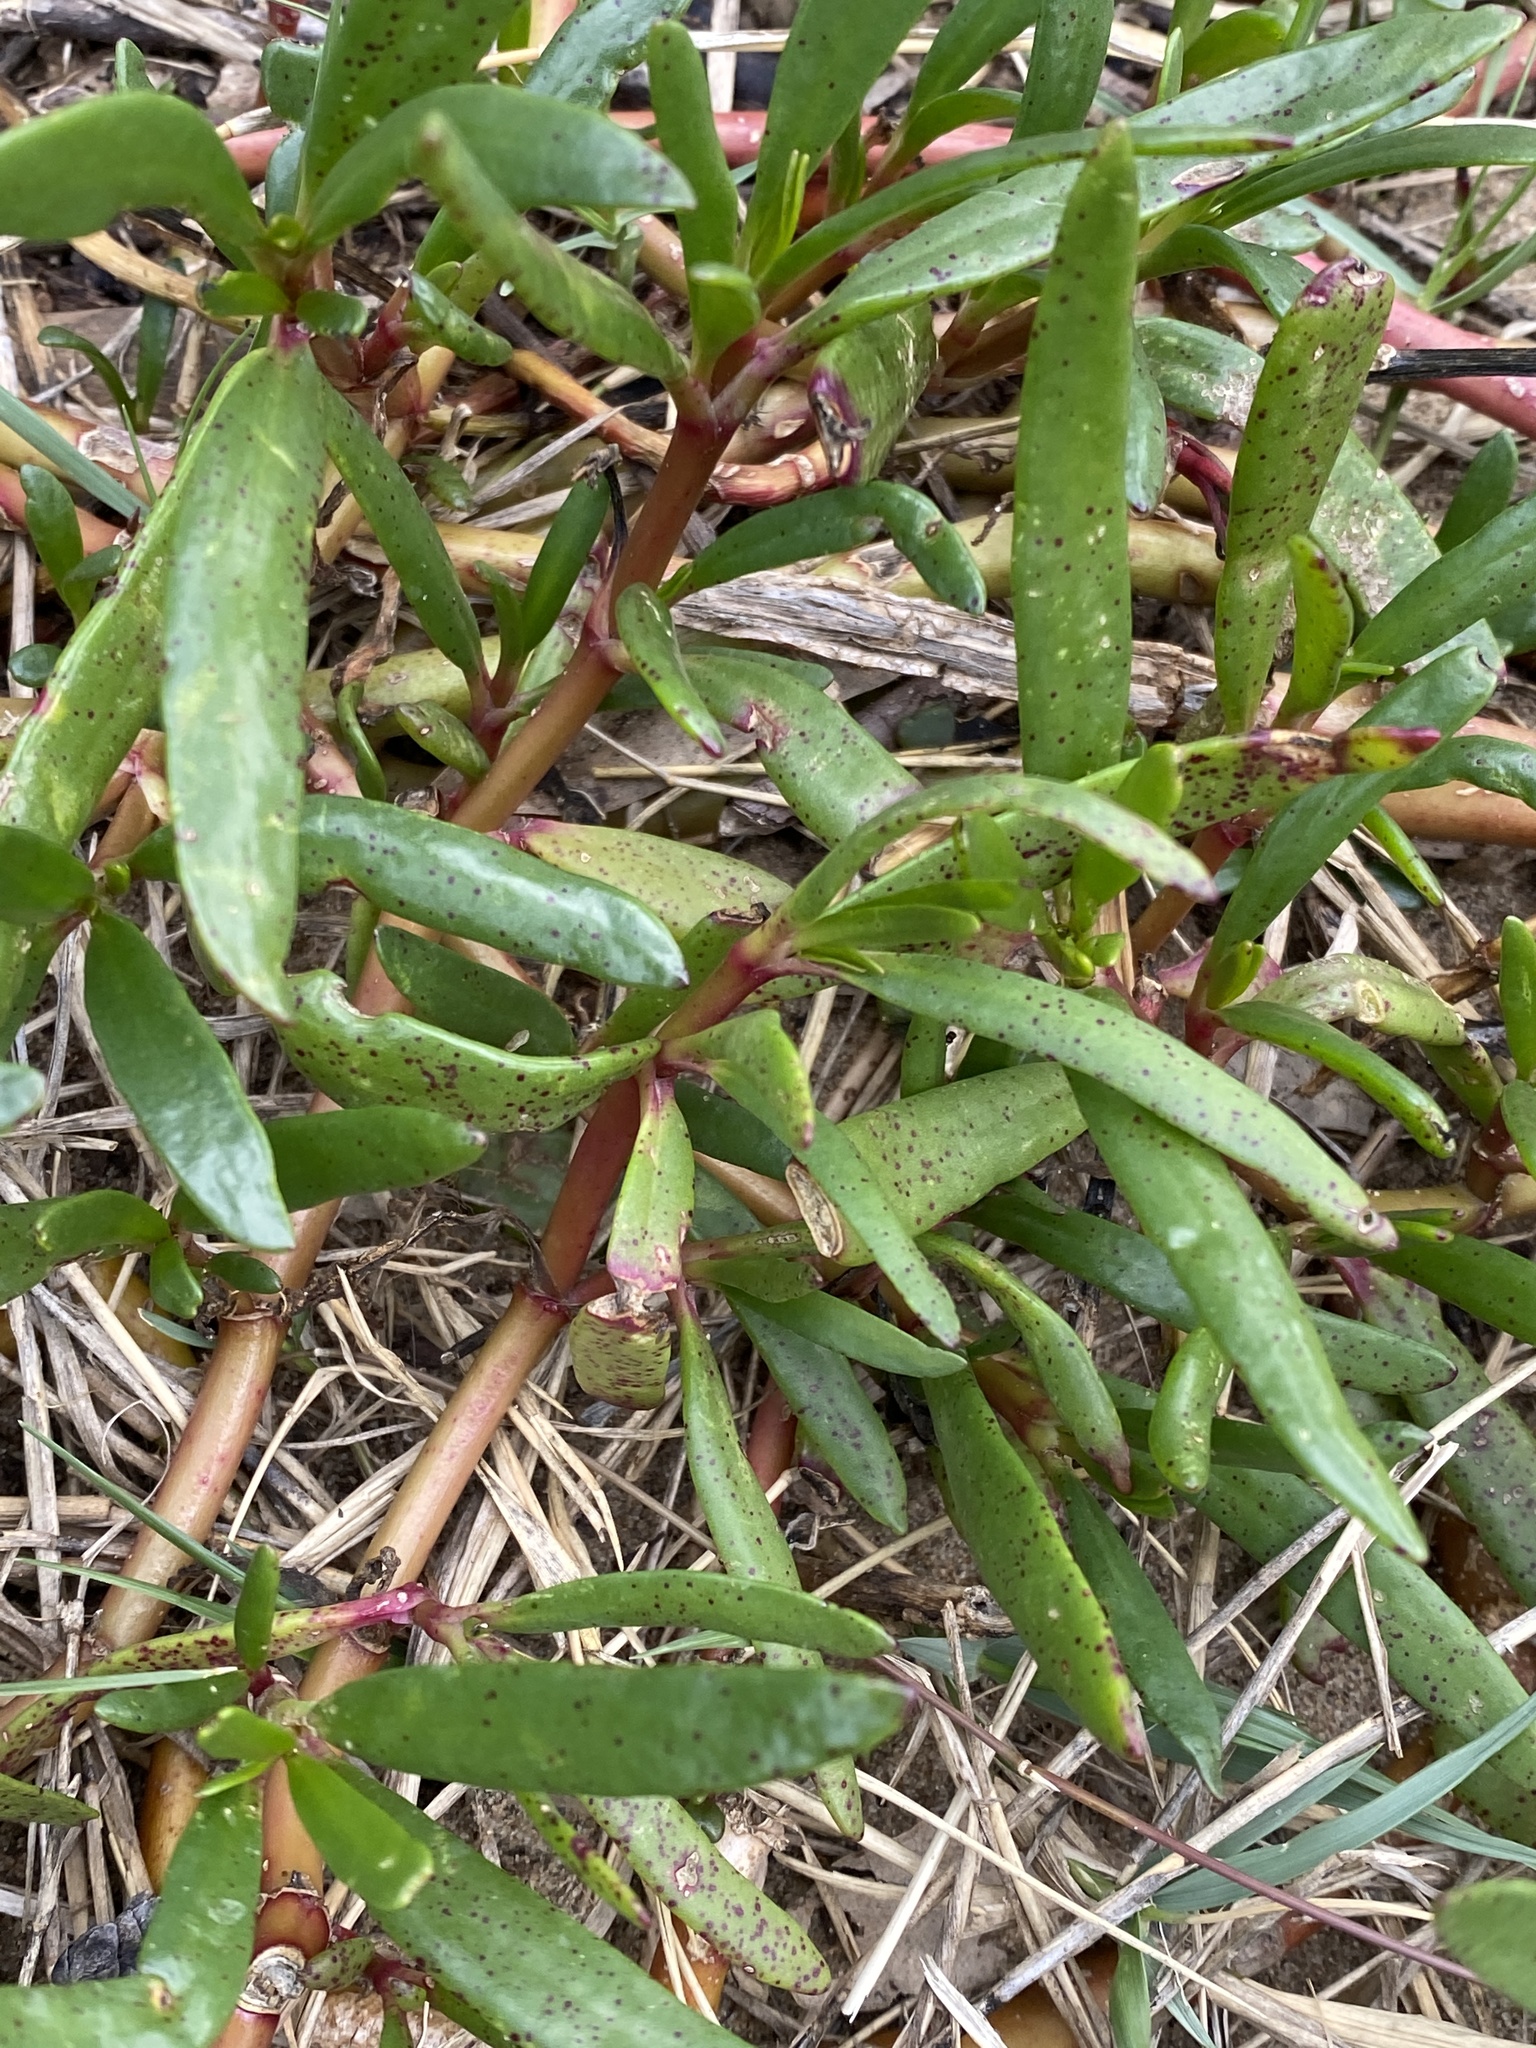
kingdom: Plantae
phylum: Tracheophyta
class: Magnoliopsida
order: Caryophyllales
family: Aizoaceae
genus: Sesuvium
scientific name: Sesuvium portulacastrum
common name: Sea-purslane
